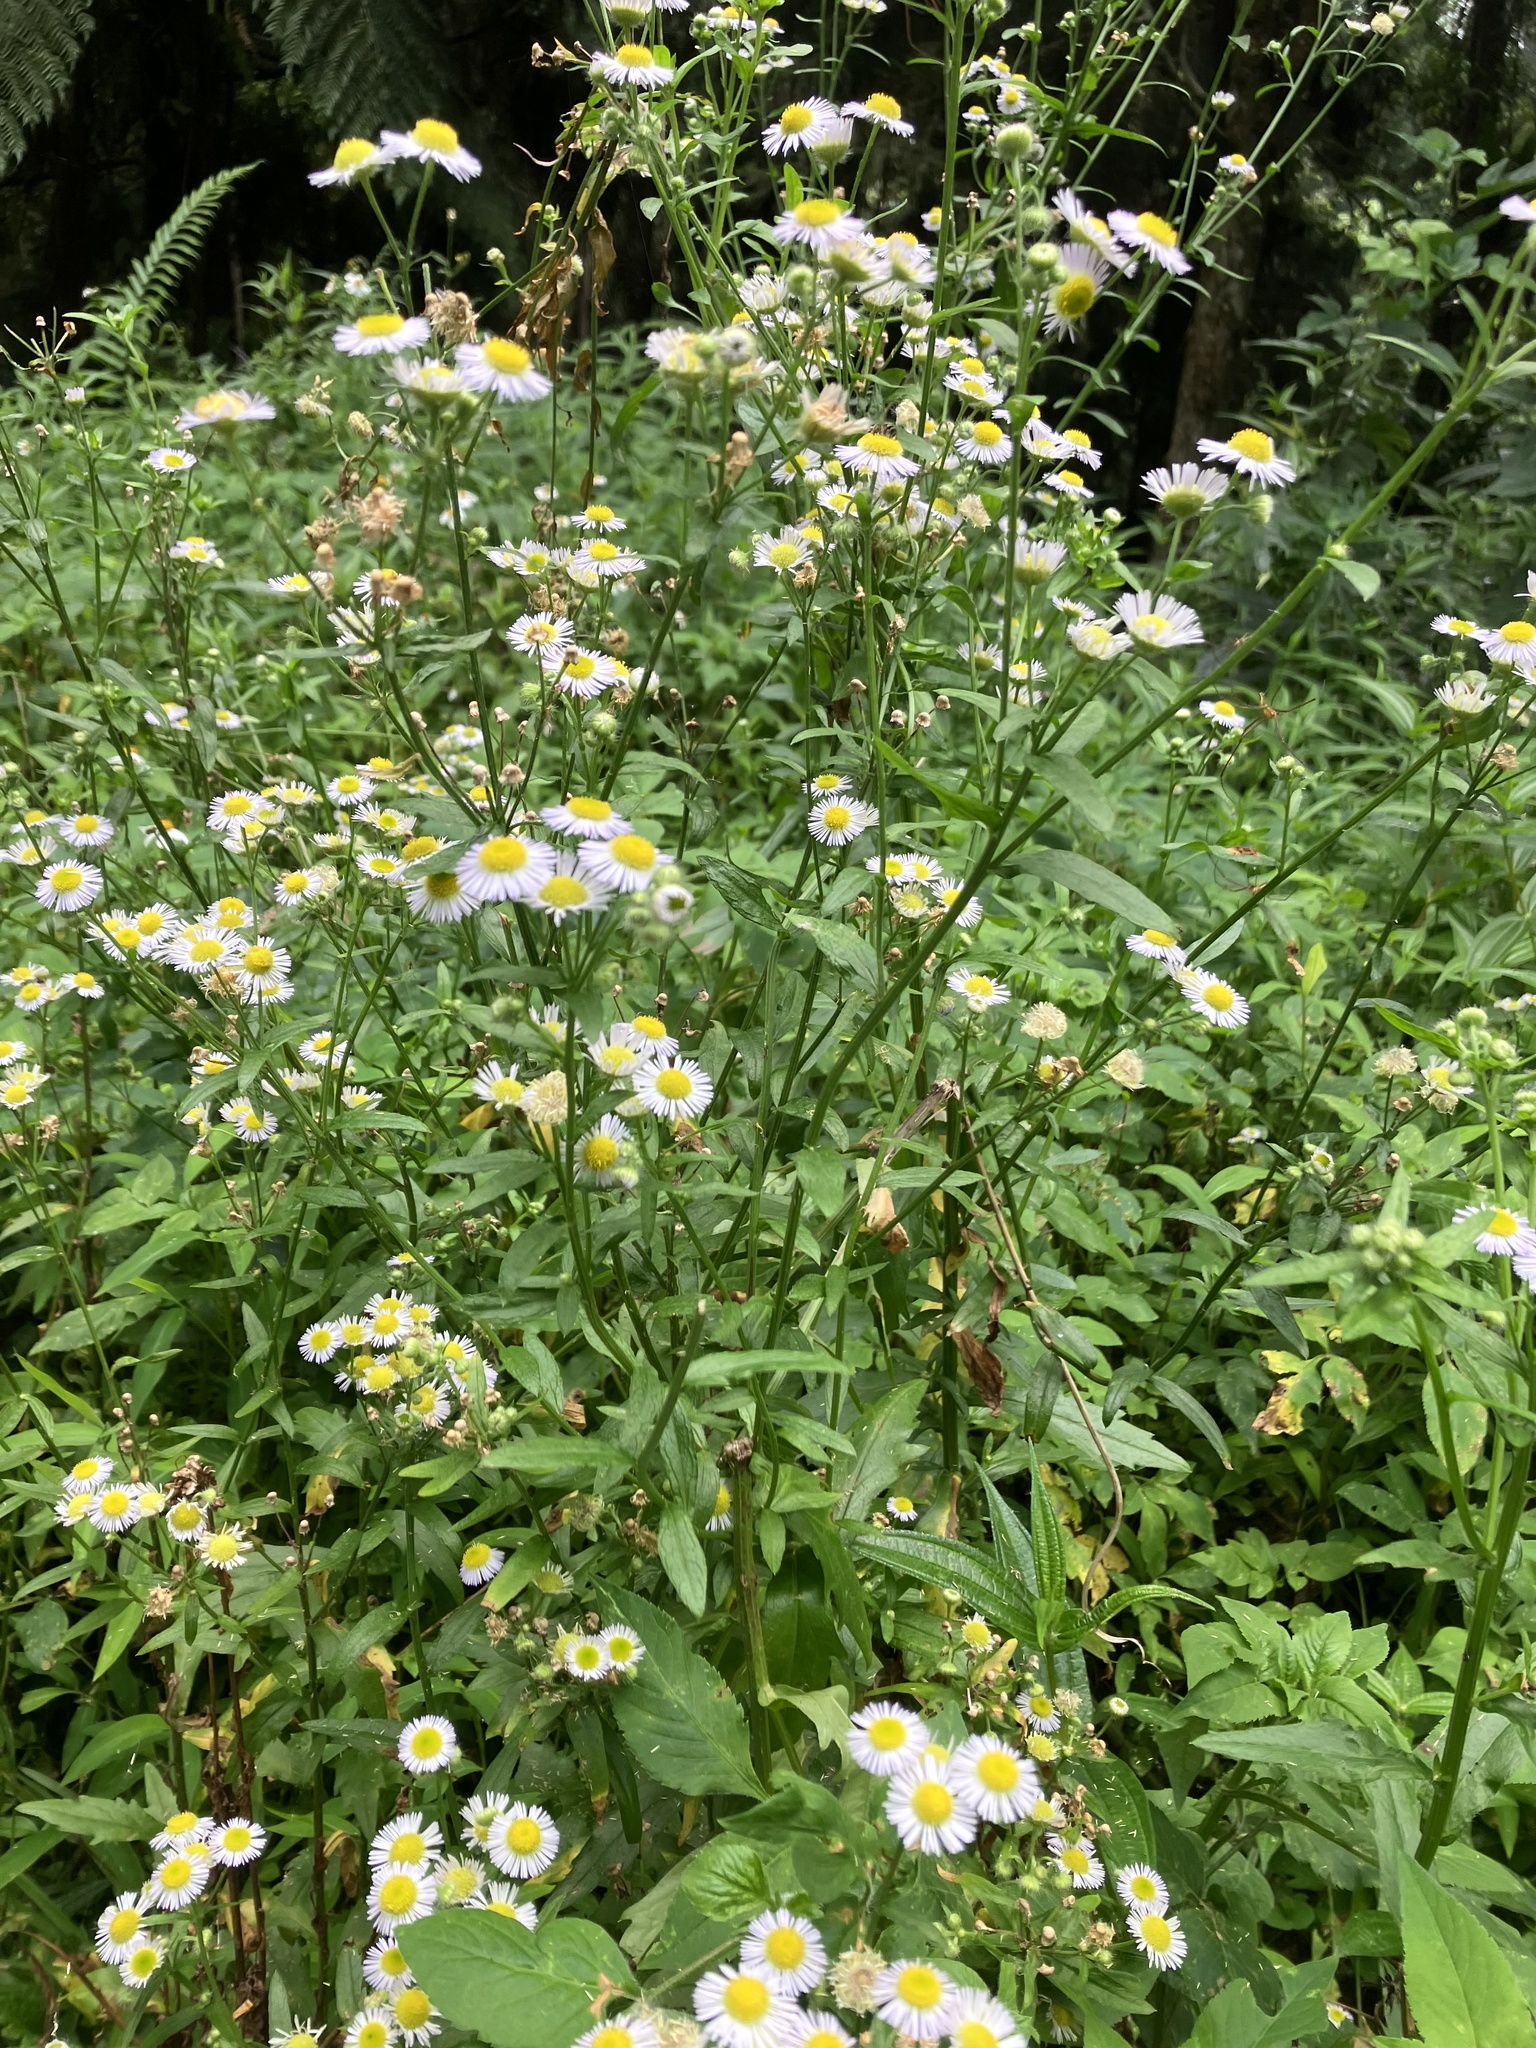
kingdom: Plantae
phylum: Tracheophyta
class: Magnoliopsida
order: Asterales
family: Asteraceae
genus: Erigeron
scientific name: Erigeron annuus
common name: Tall fleabane
